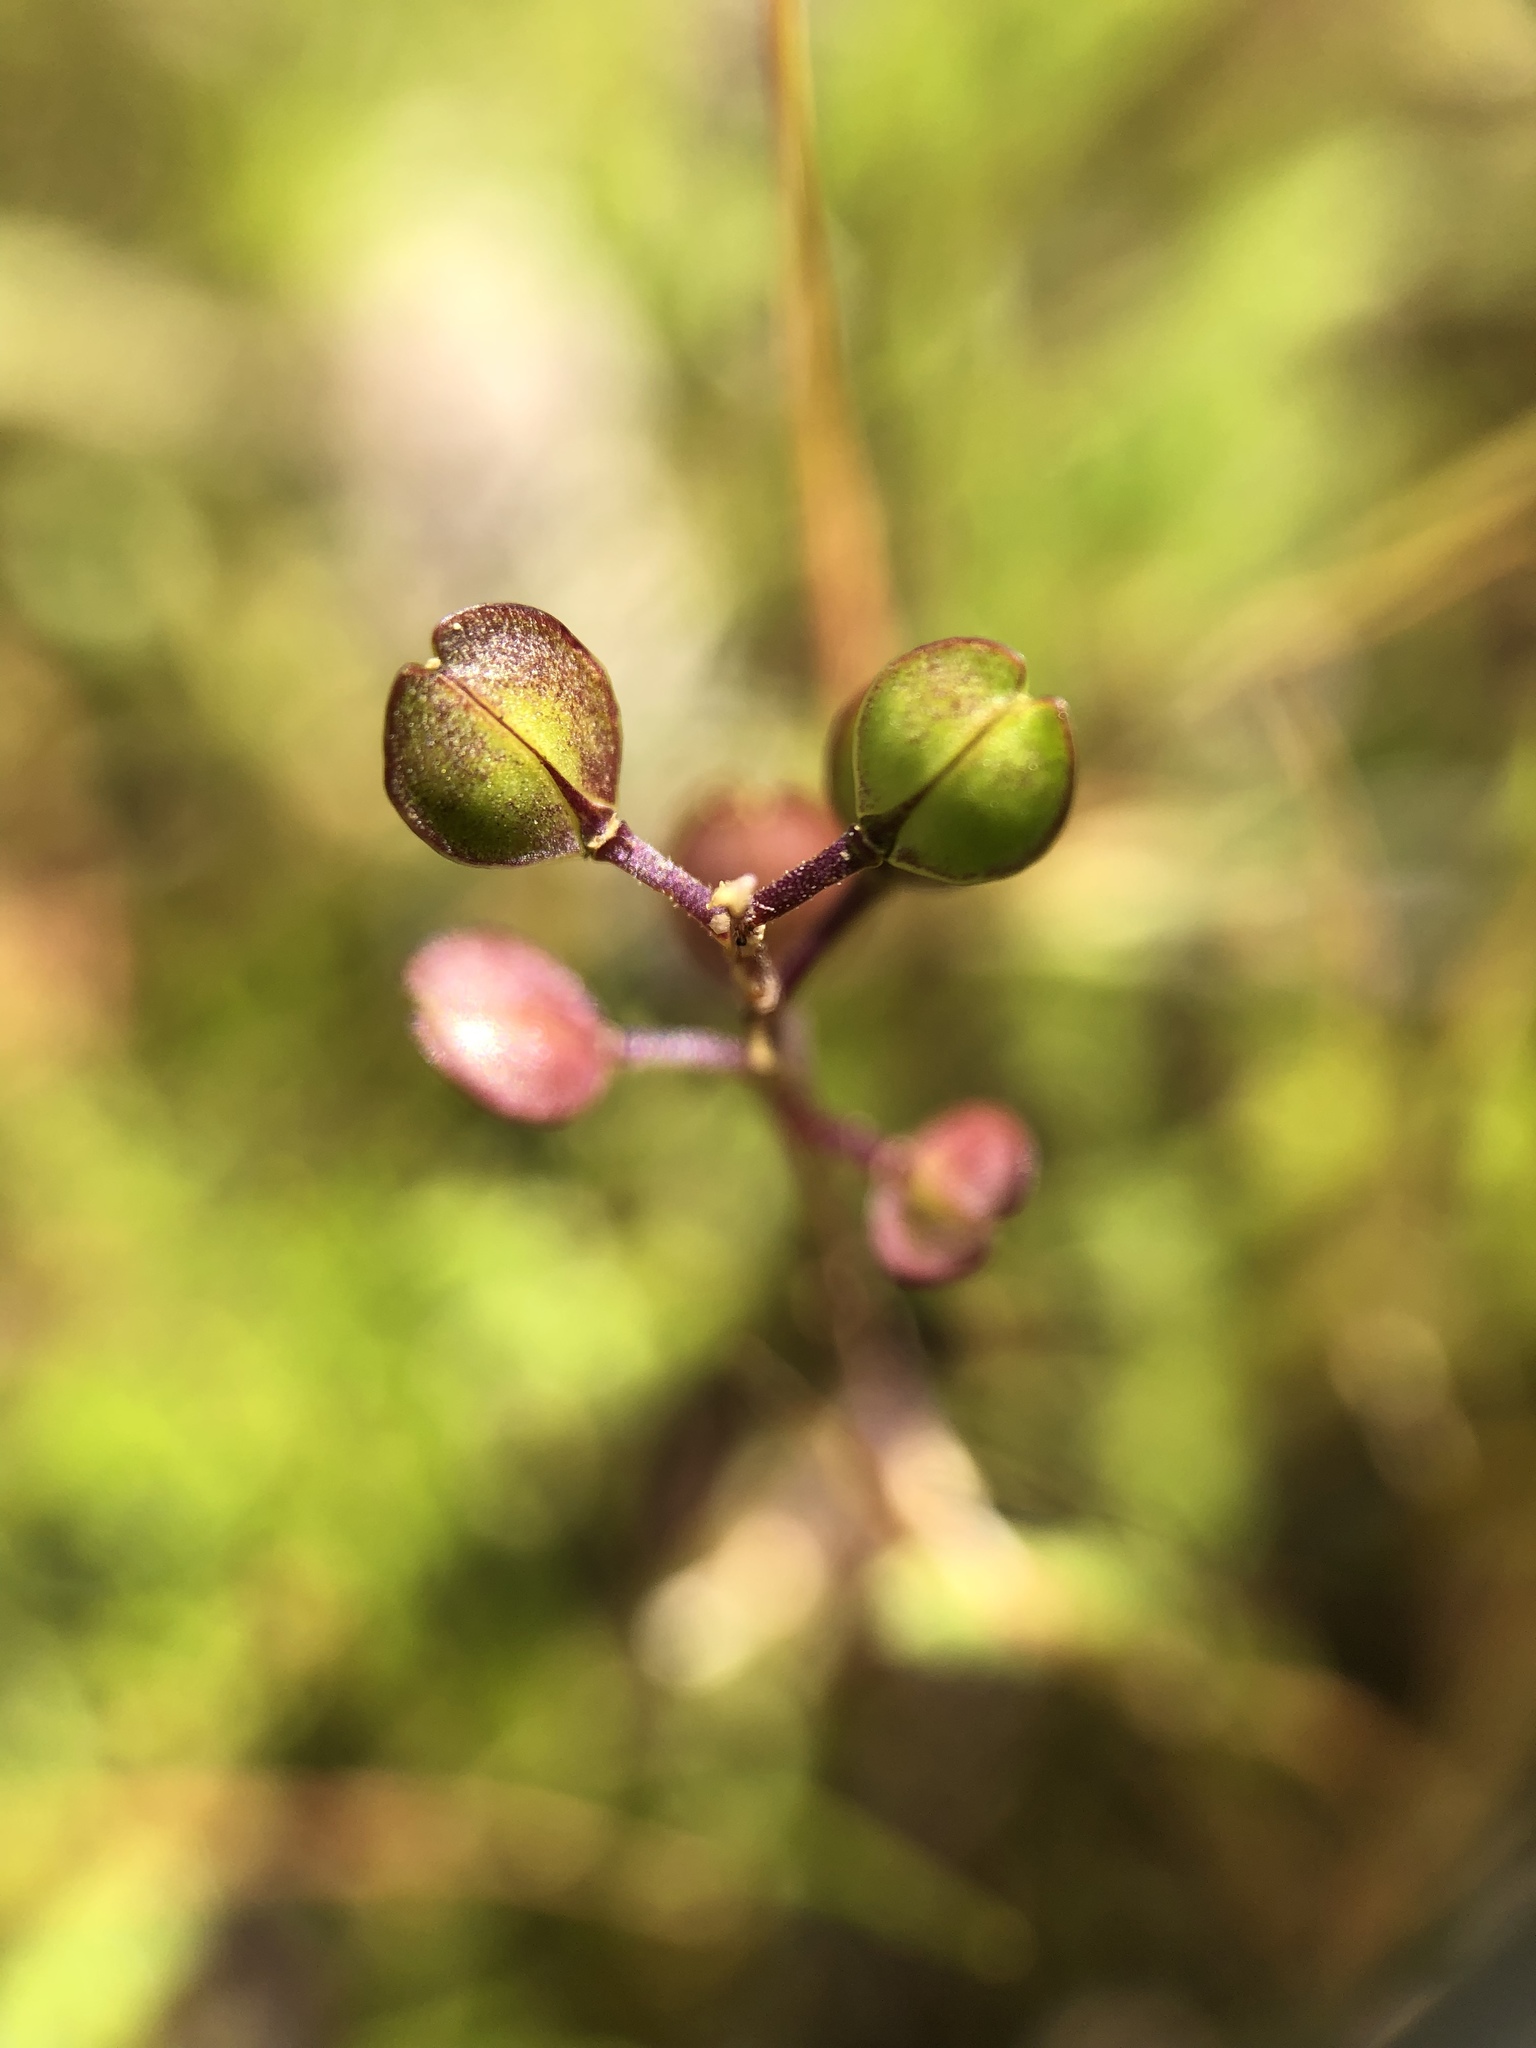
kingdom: Plantae
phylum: Tracheophyta
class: Magnoliopsida
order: Brassicales
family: Brassicaceae
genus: Lepidium
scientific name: Lepidium nitidum
